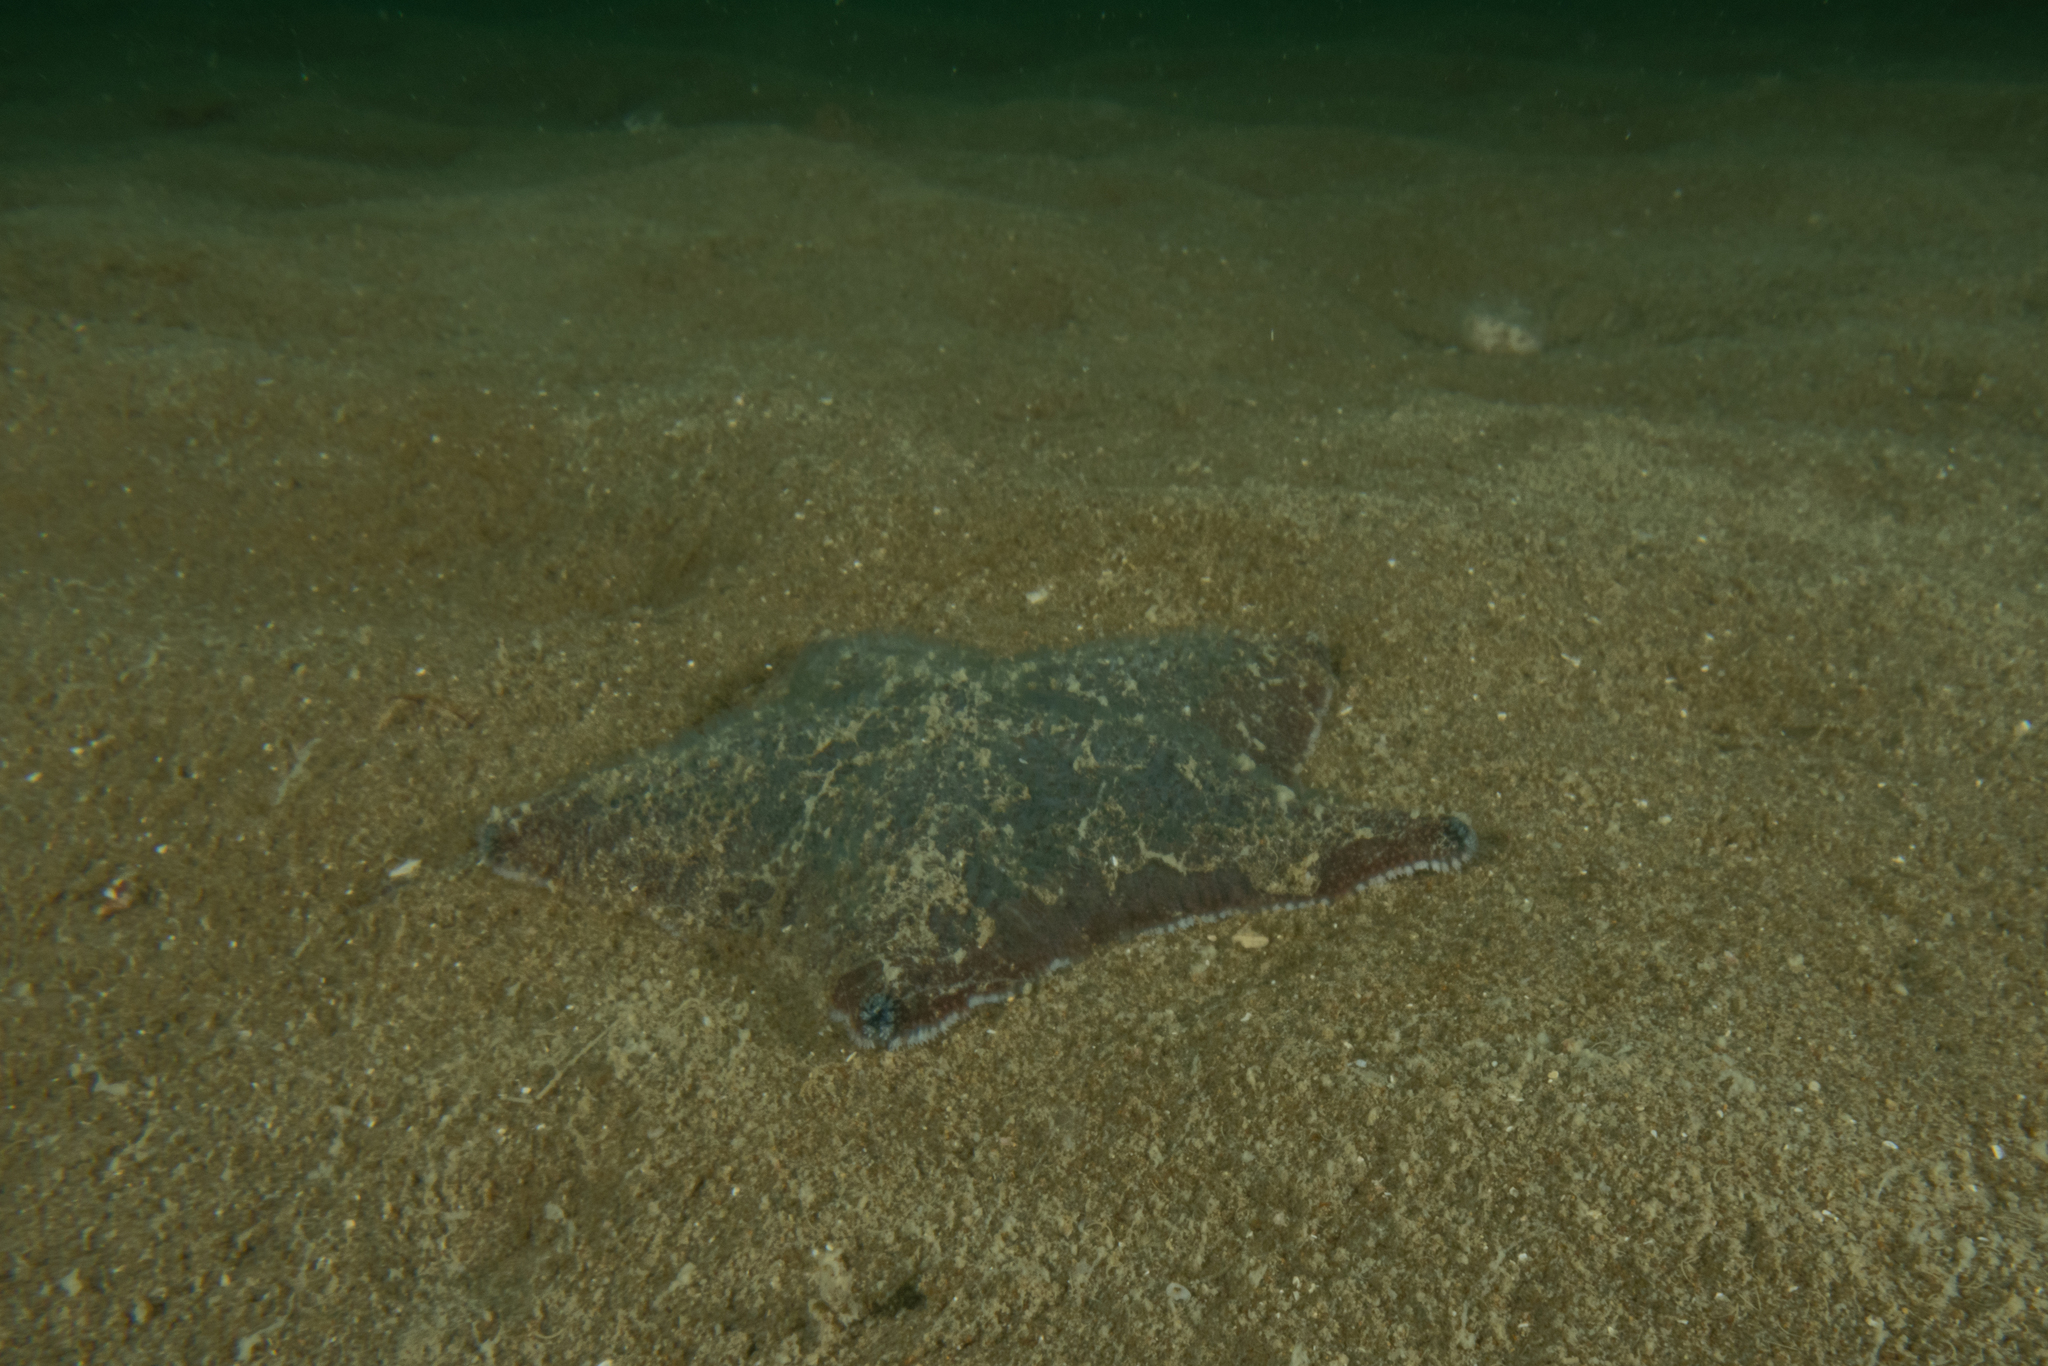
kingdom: Animalia
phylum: Echinodermata
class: Asteroidea
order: Valvatida
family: Asterinidae
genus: Patiriella
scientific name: Patiriella regularis
